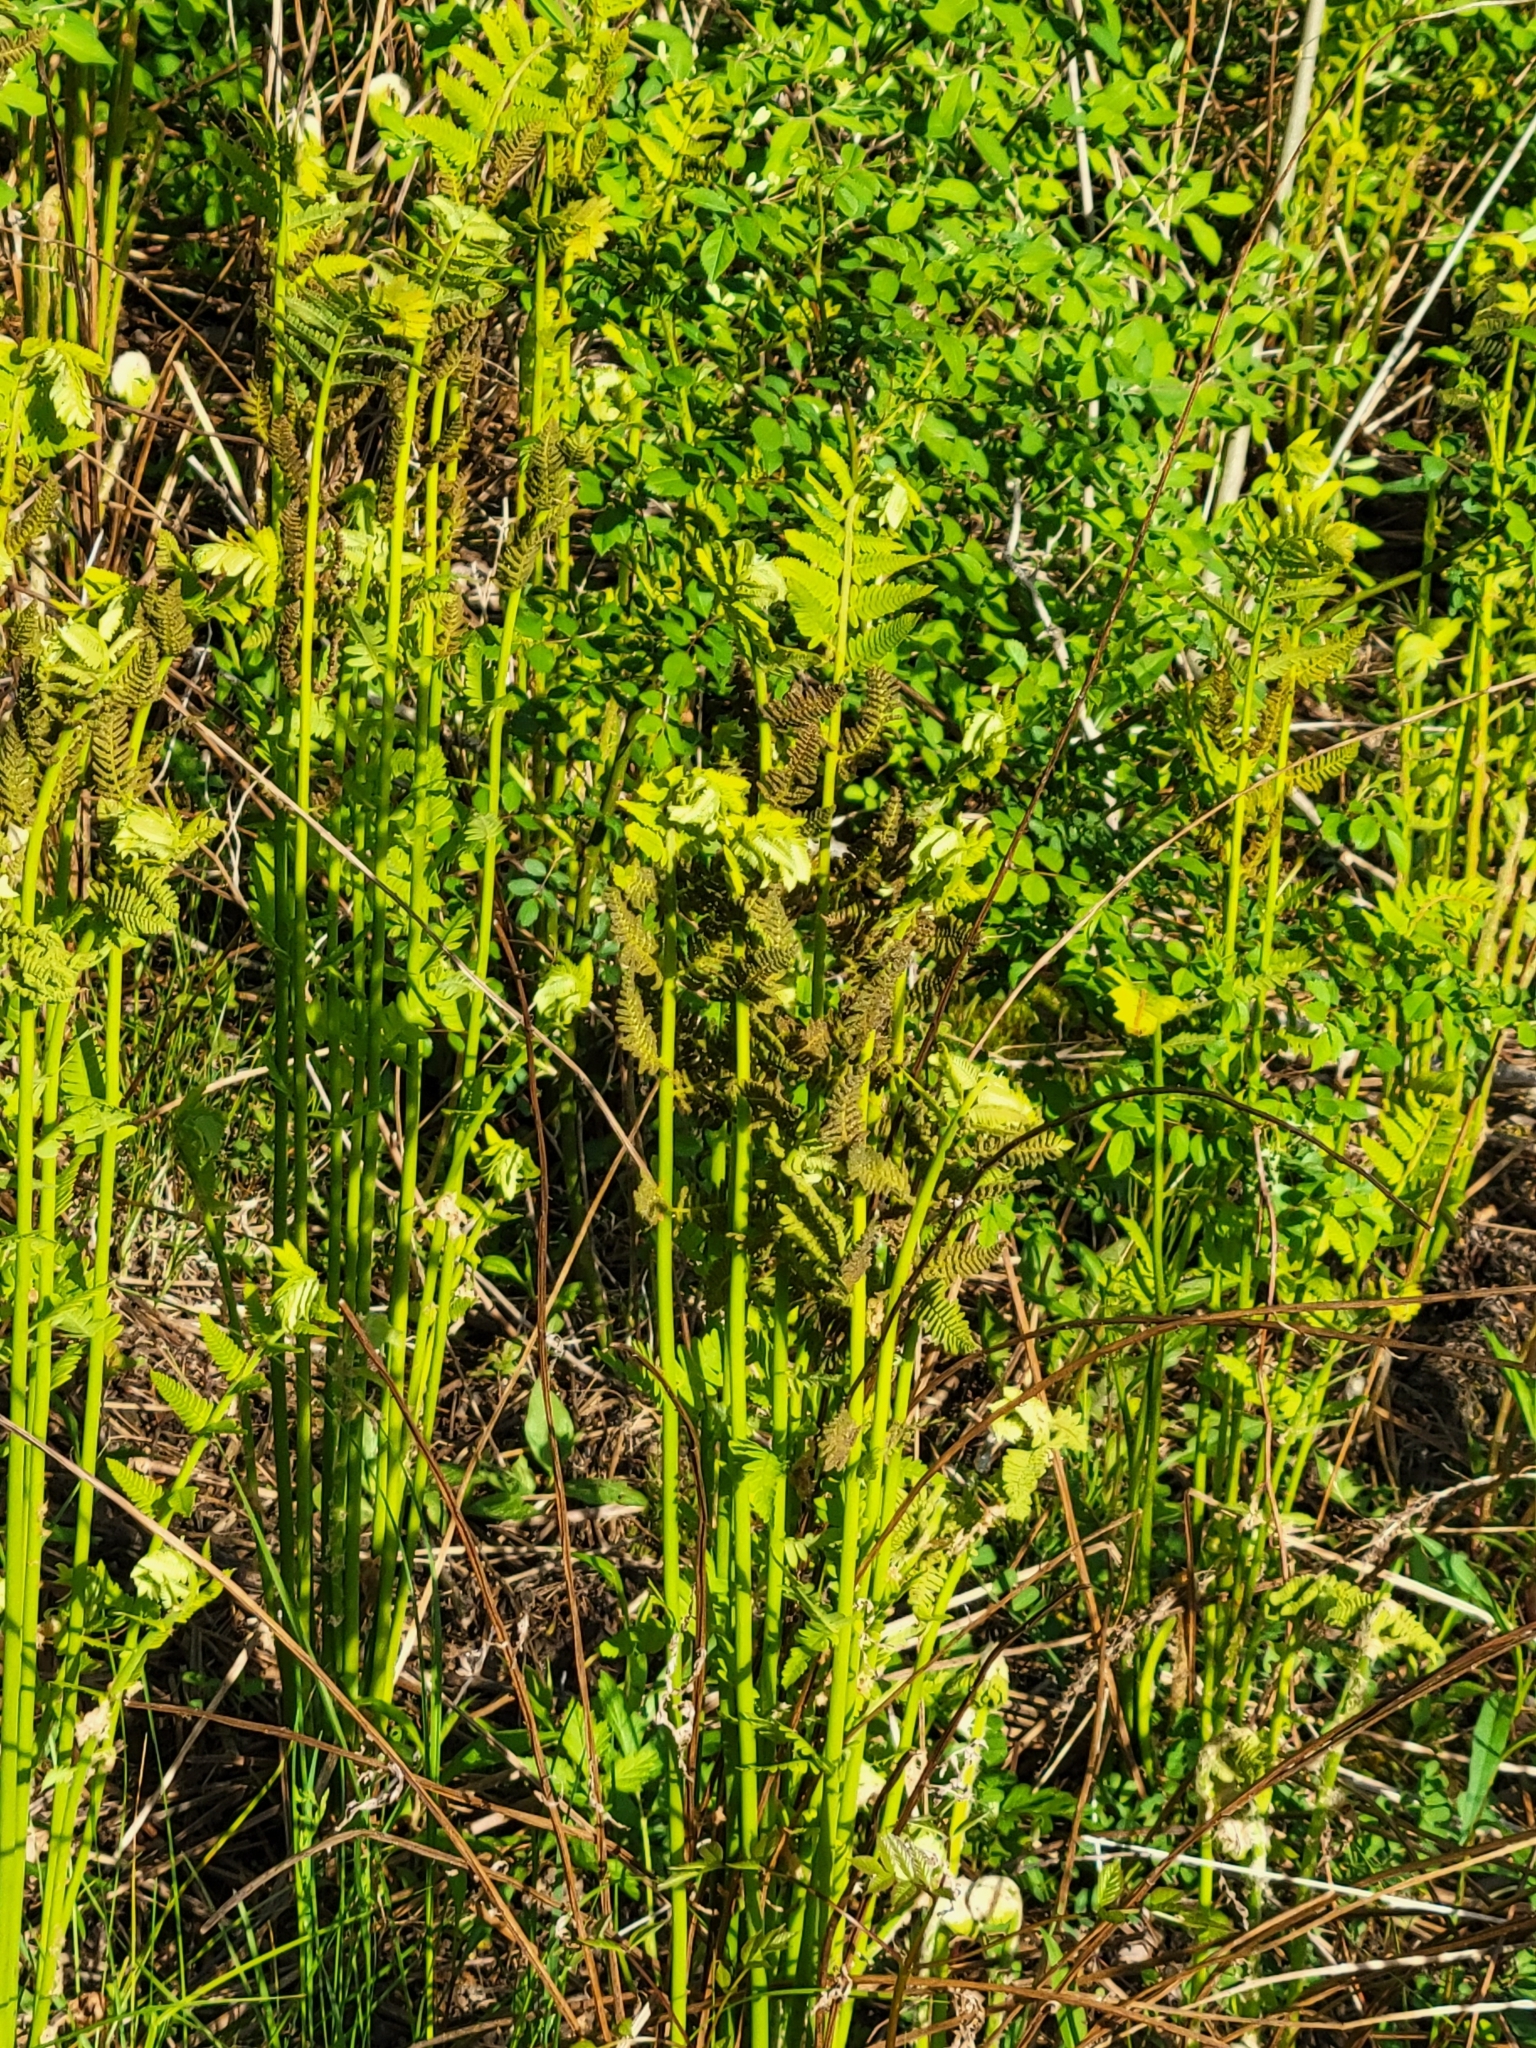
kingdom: Plantae
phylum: Tracheophyta
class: Polypodiopsida
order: Osmundales
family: Osmundaceae
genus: Claytosmunda
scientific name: Claytosmunda claytoniana
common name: Clayton's fern
